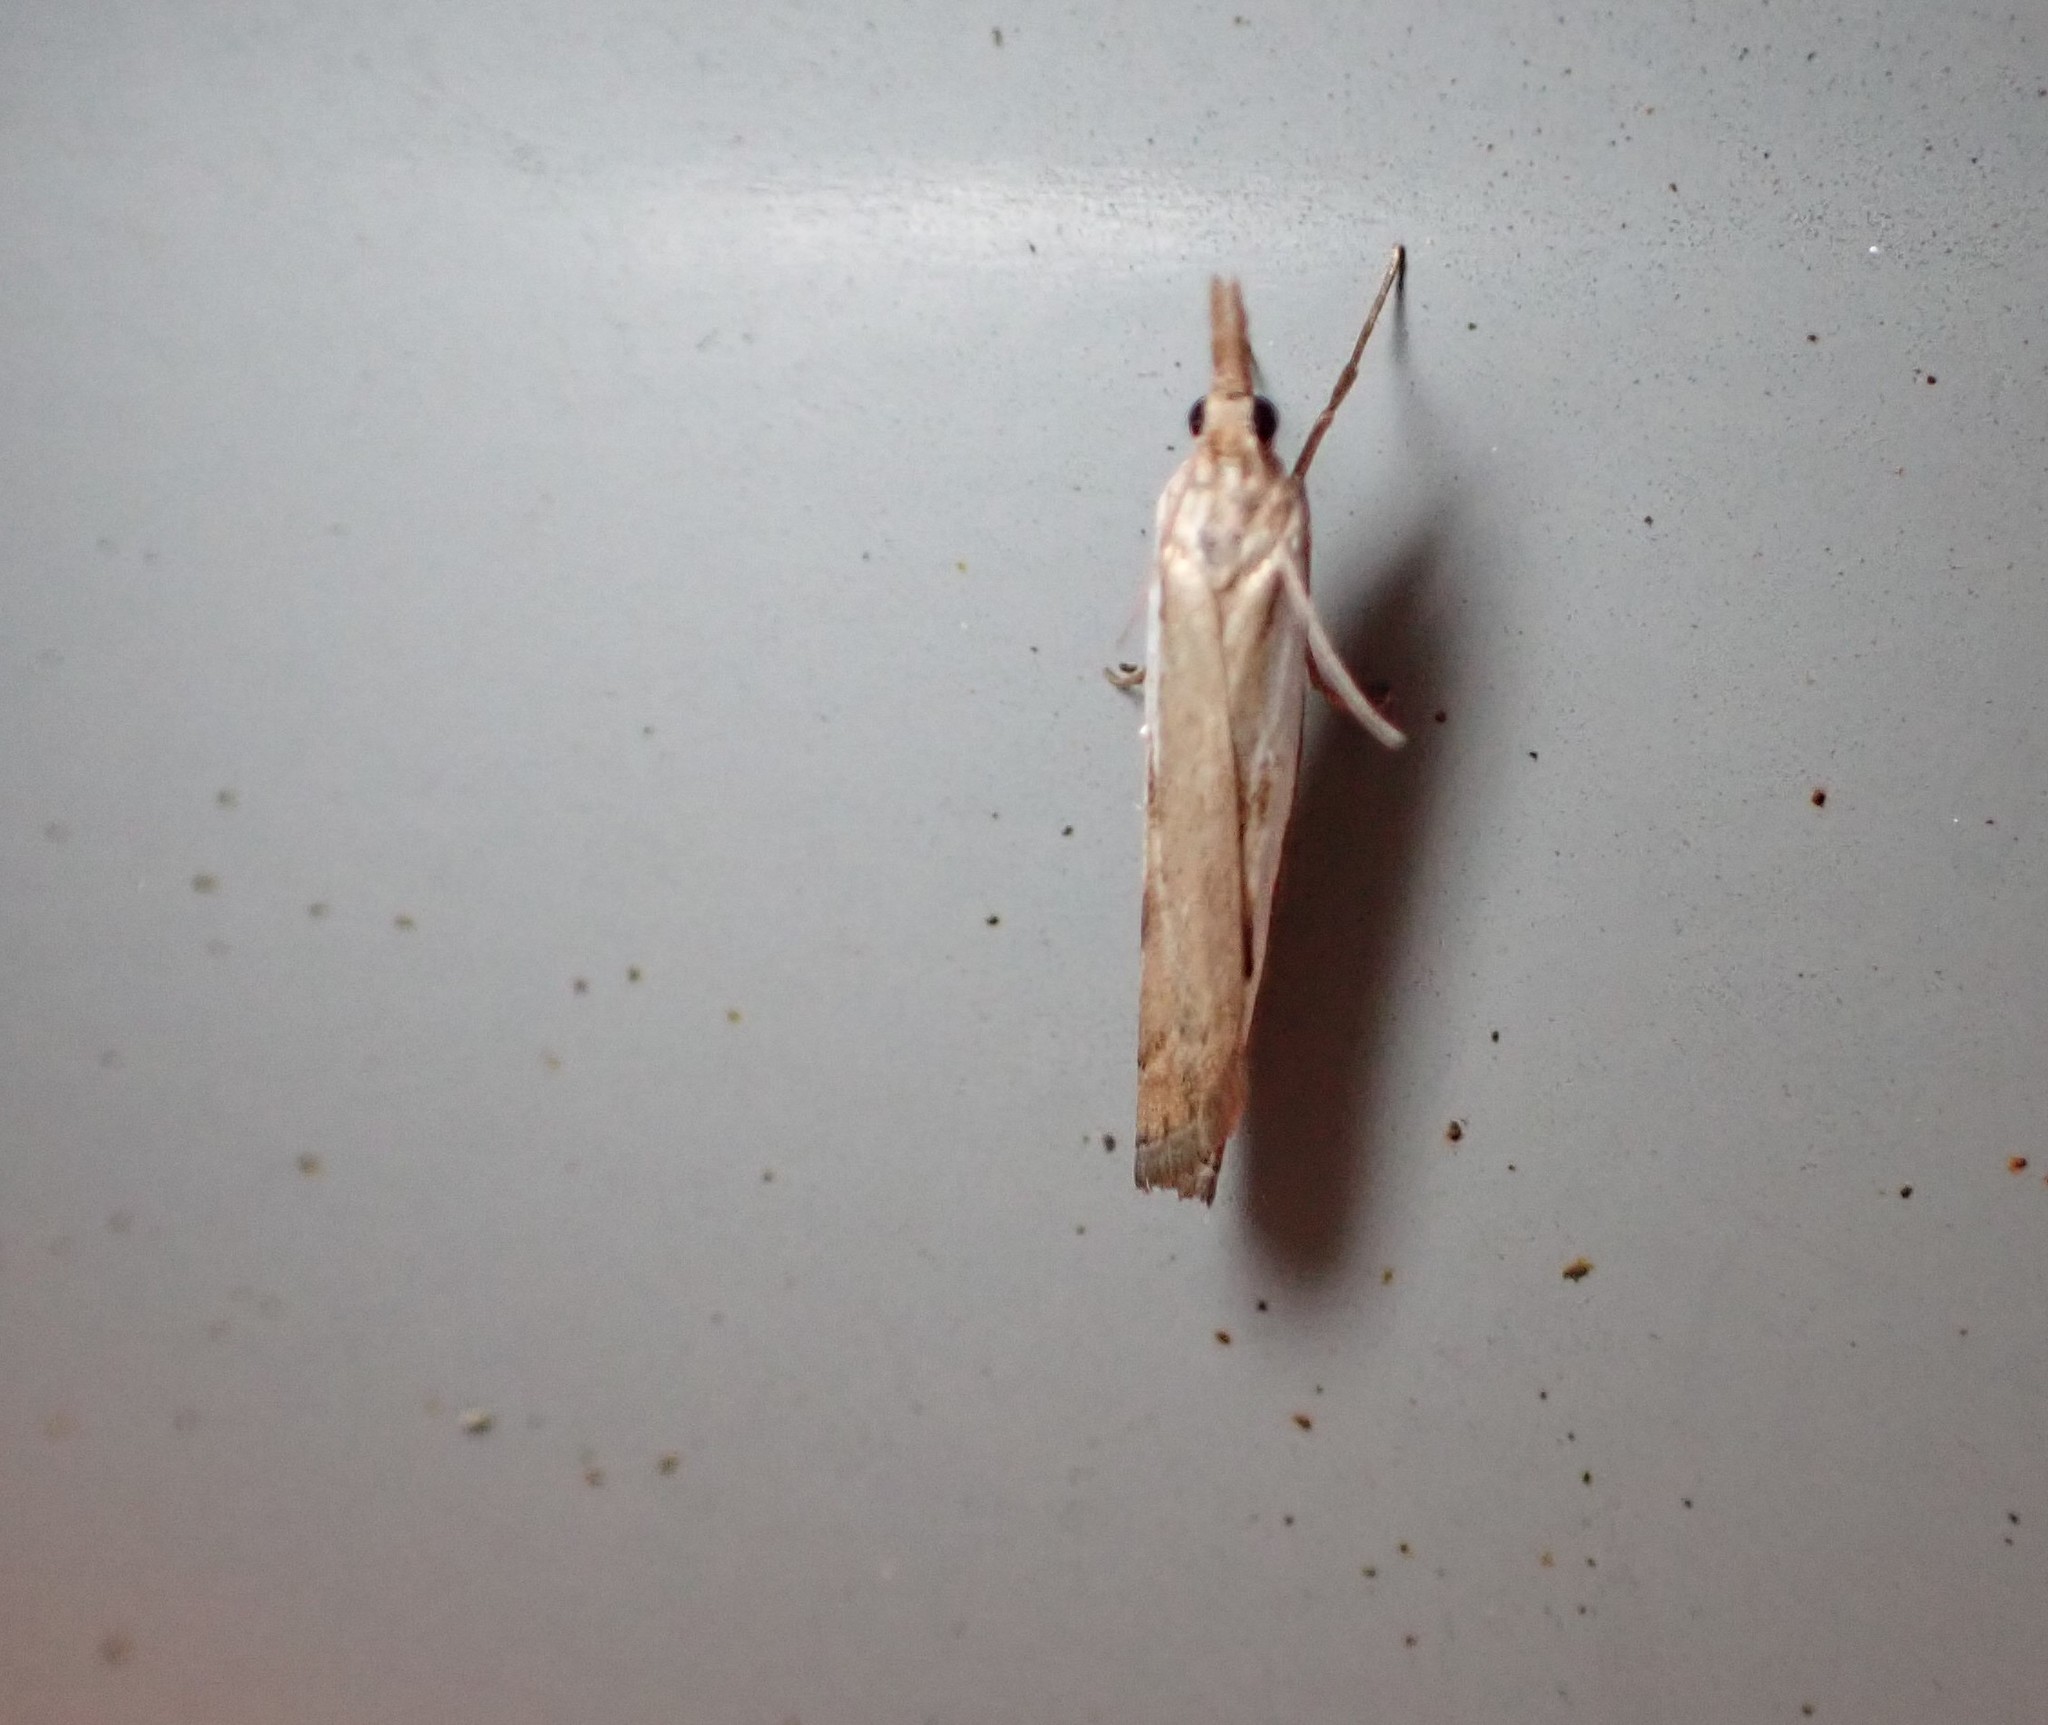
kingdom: Animalia
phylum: Arthropoda
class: Insecta
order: Lepidoptera
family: Crambidae
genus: Orocrambus
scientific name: Orocrambus flexuosellus
